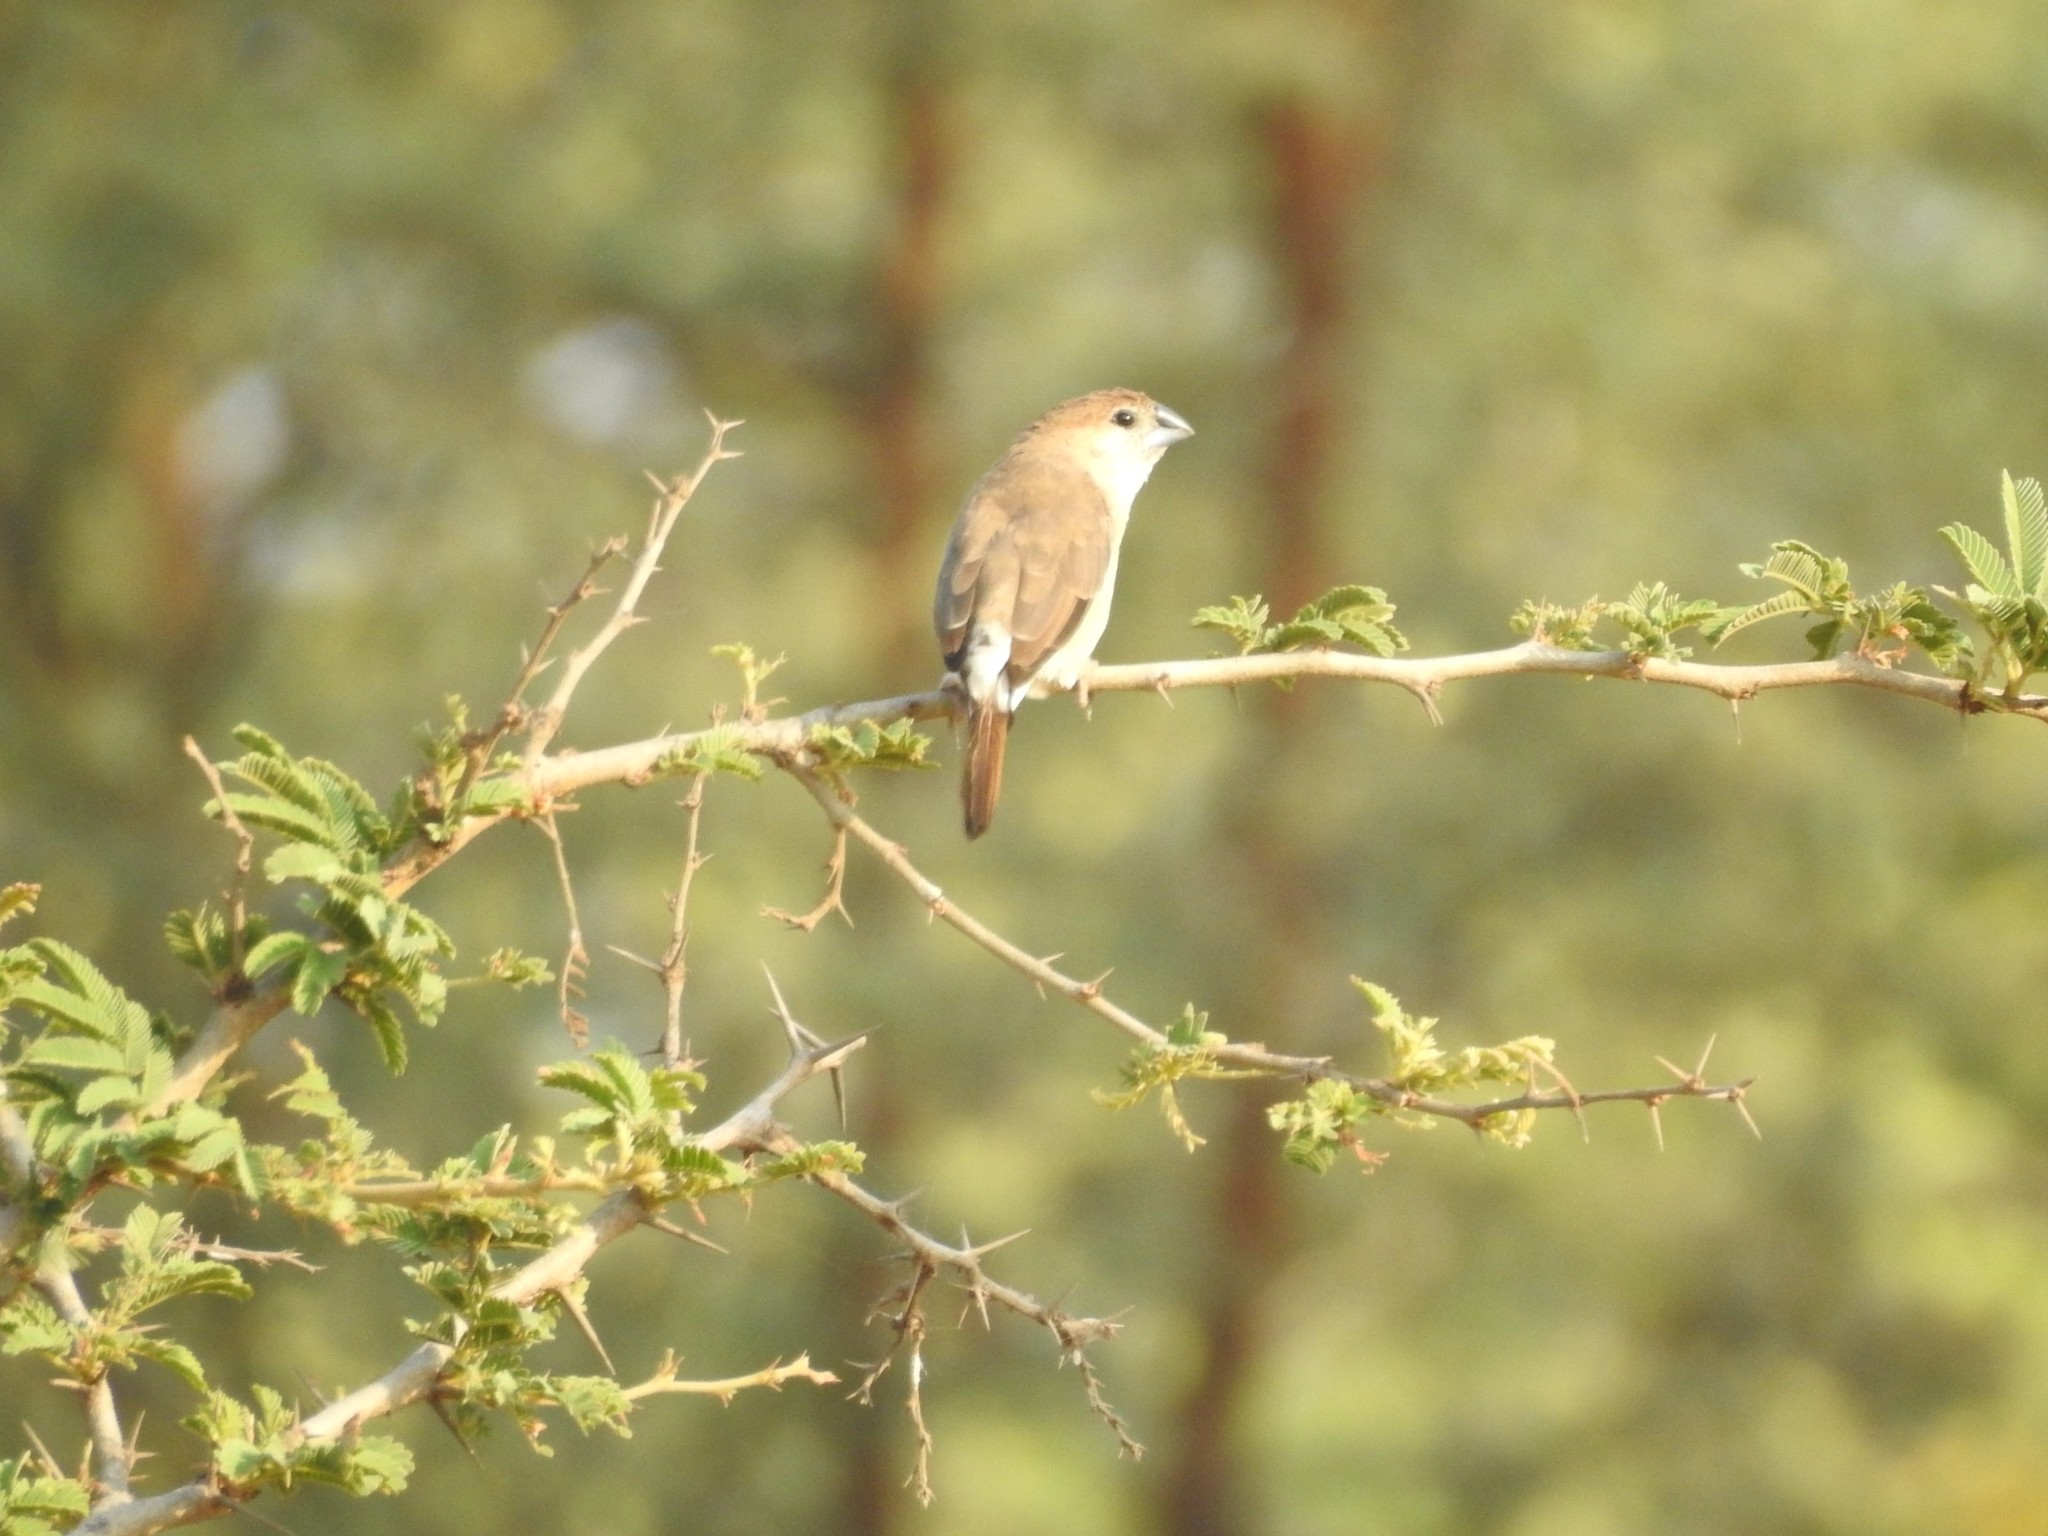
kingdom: Animalia
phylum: Chordata
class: Aves
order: Passeriformes
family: Estrildidae
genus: Euodice
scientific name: Euodice malabarica
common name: Indian silverbill
